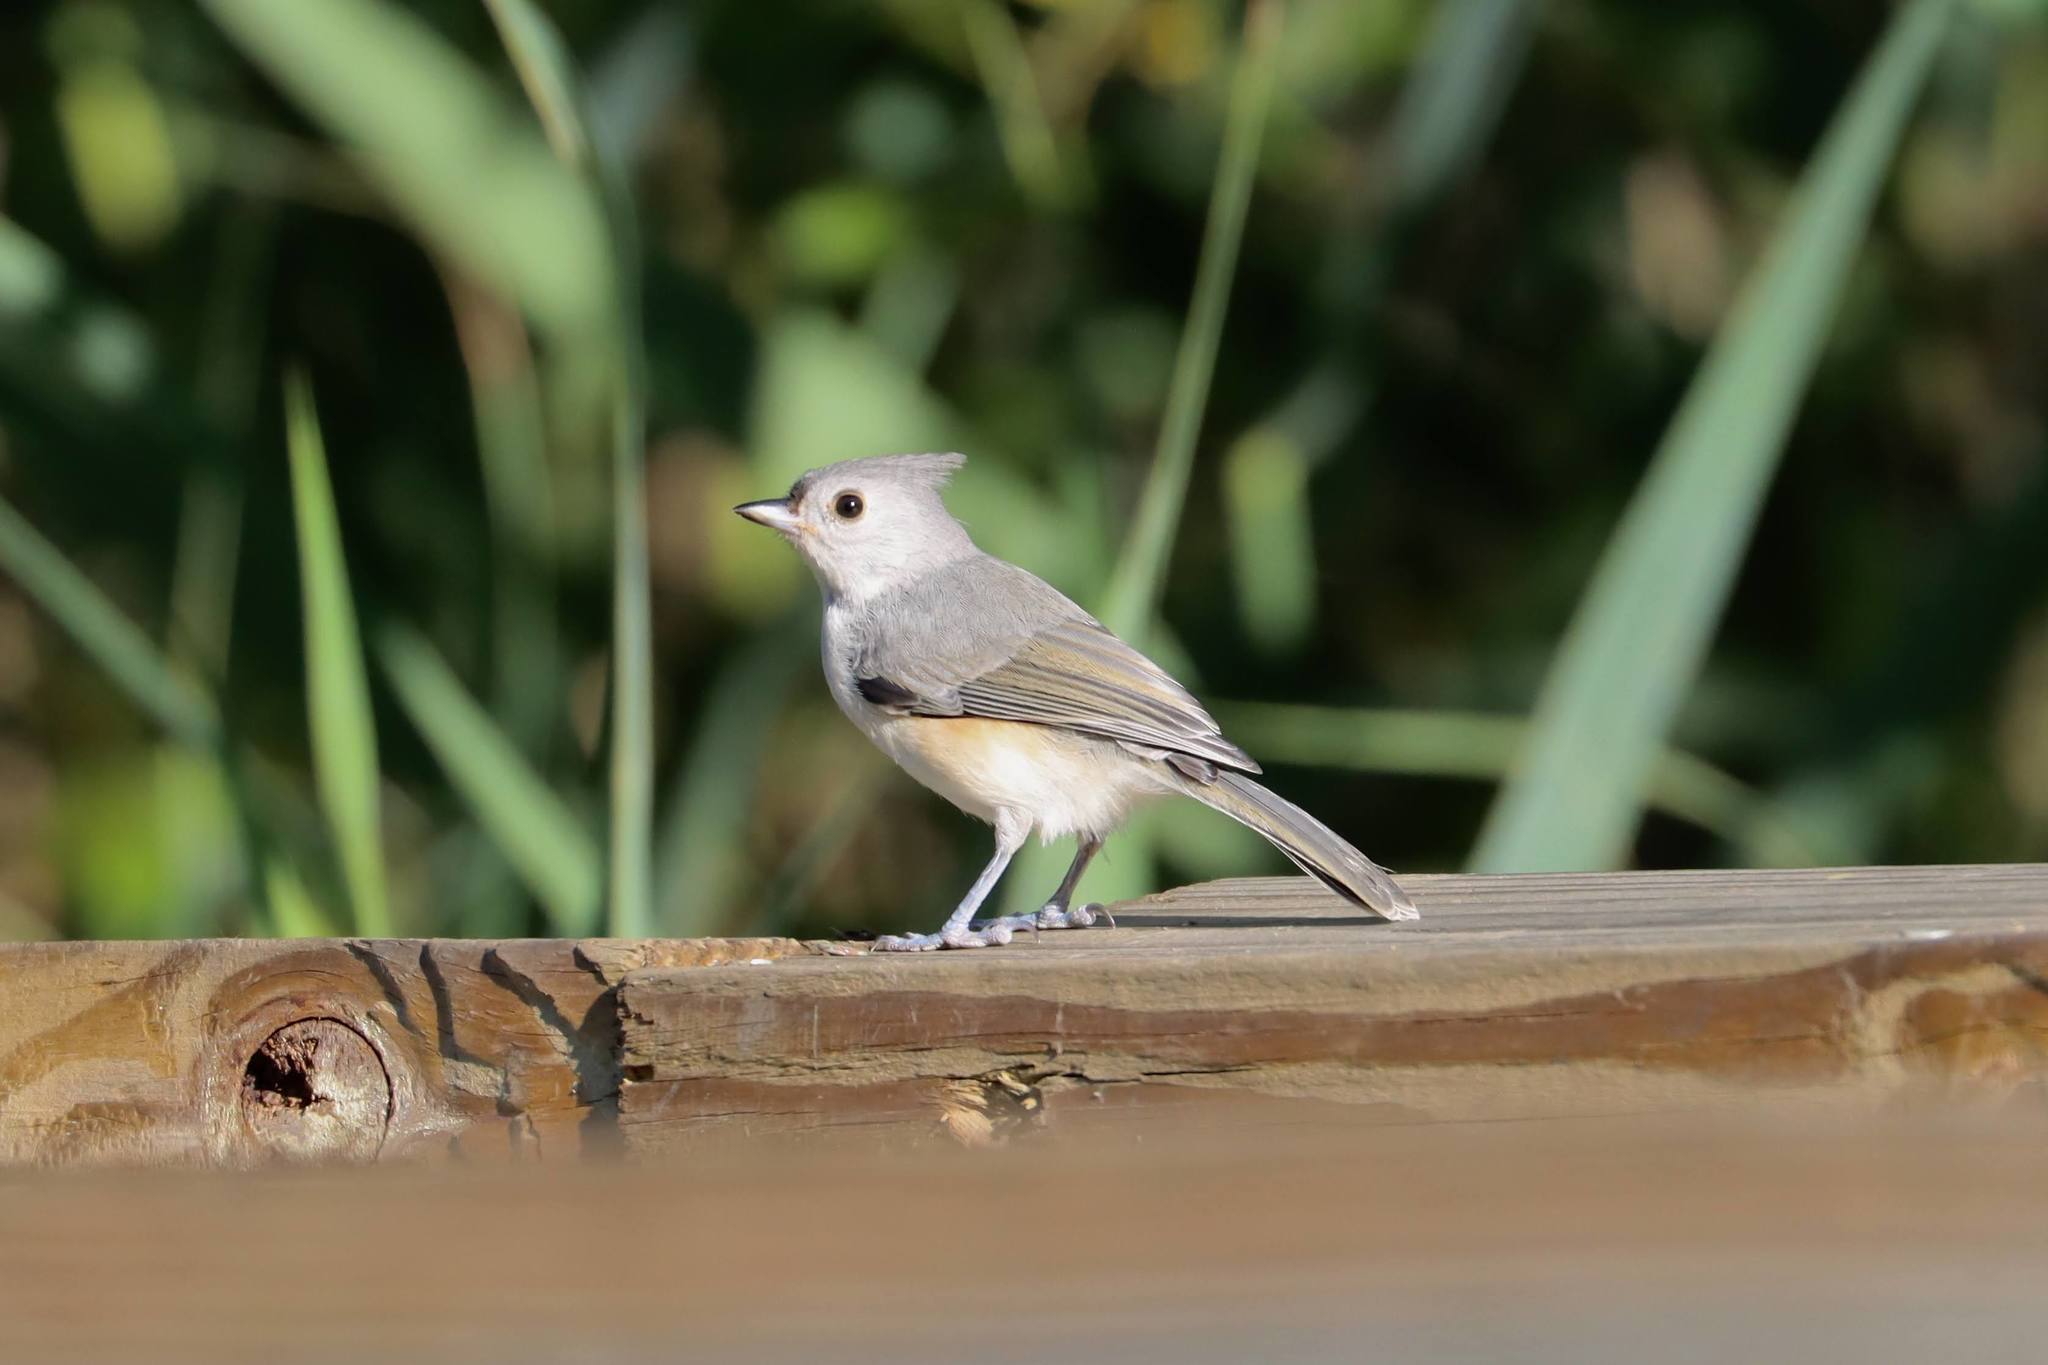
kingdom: Animalia
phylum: Chordata
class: Aves
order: Passeriformes
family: Paridae
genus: Baeolophus
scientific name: Baeolophus bicolor
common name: Tufted titmouse
